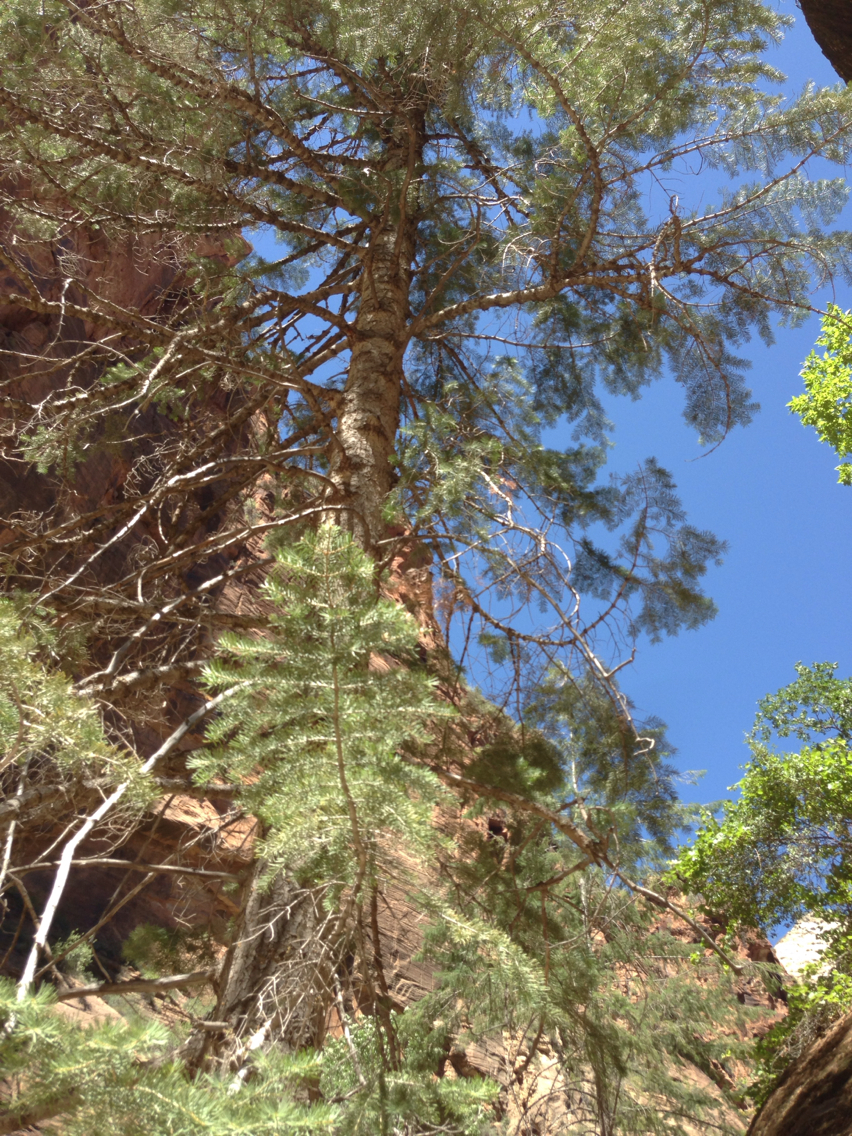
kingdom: Plantae
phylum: Tracheophyta
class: Pinopsida
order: Pinales
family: Pinaceae
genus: Pseudotsuga
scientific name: Pseudotsuga menziesii
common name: Douglas fir
